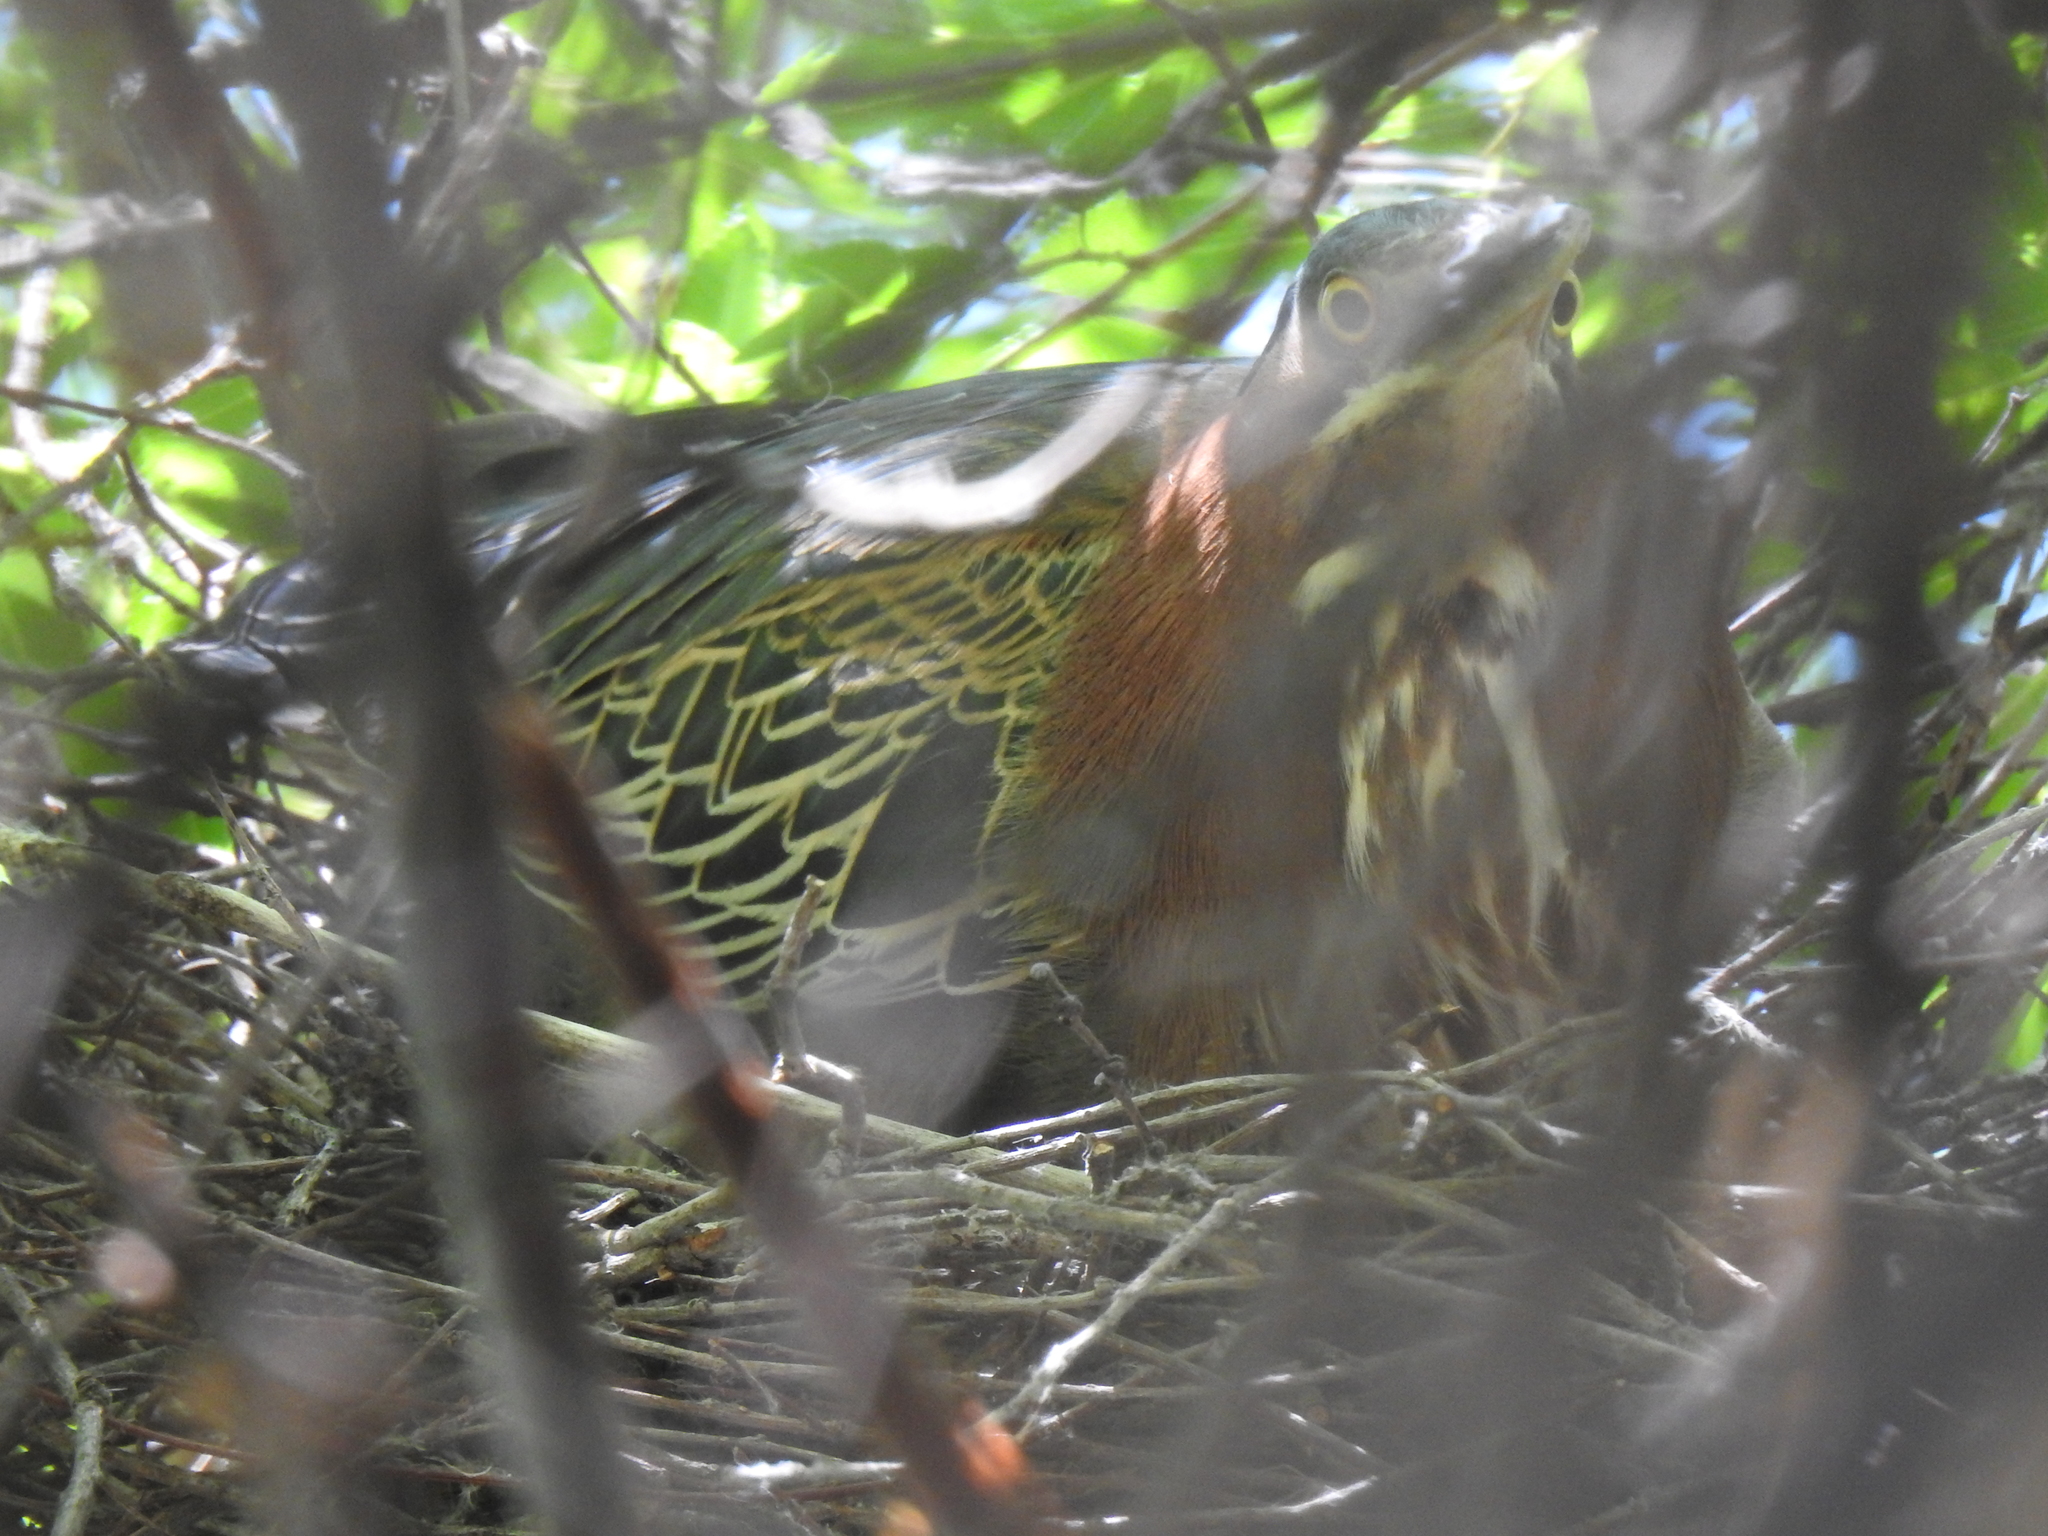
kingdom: Animalia
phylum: Chordata
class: Aves
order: Pelecaniformes
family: Ardeidae
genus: Butorides
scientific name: Butorides virescens
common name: Green heron
